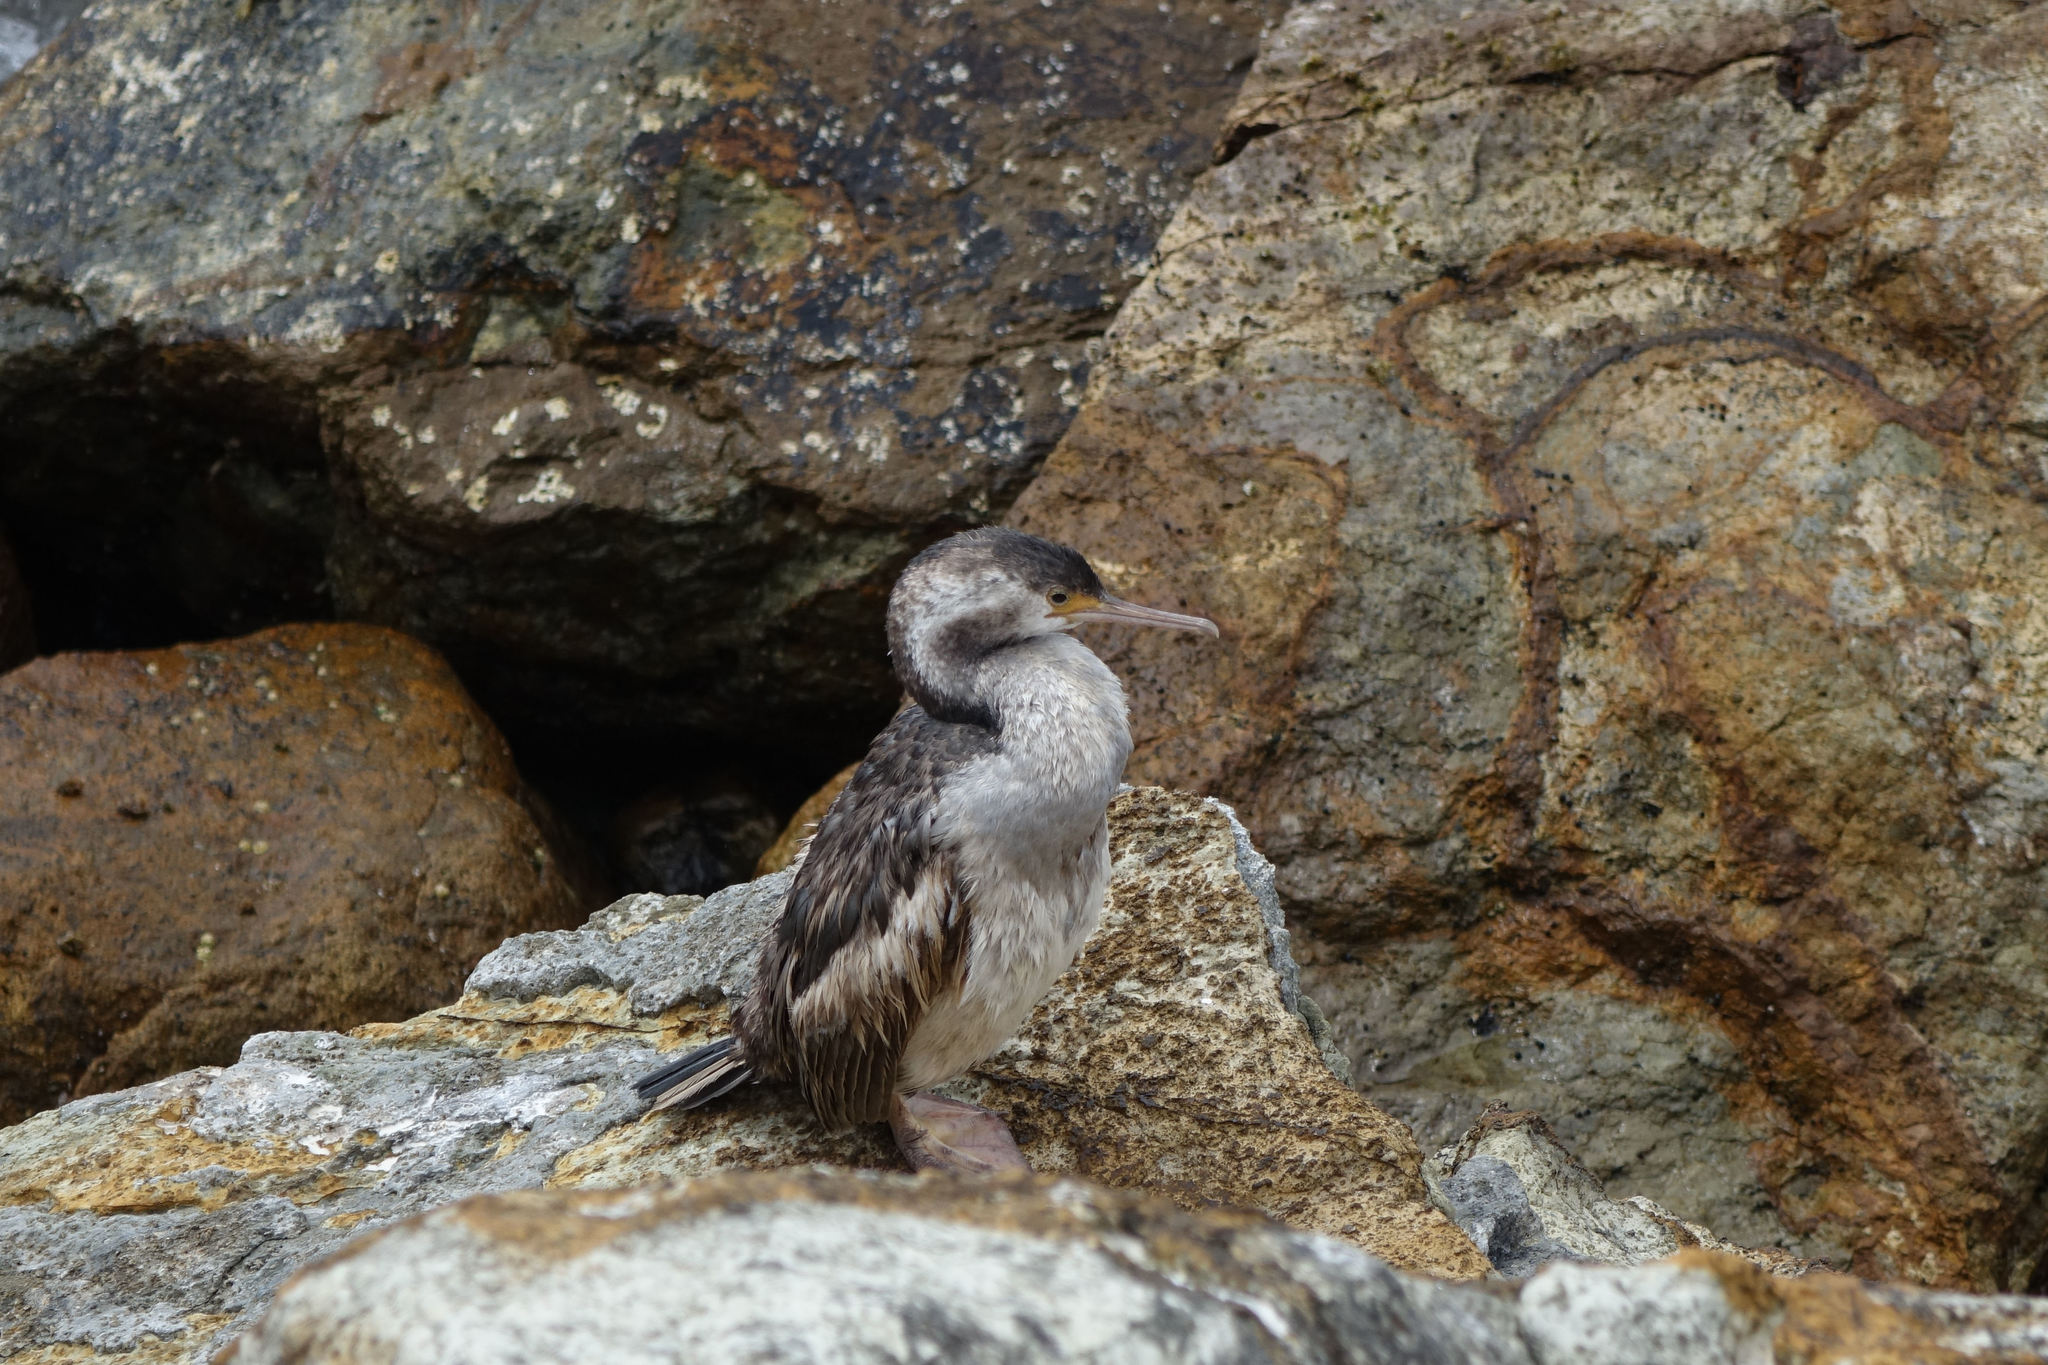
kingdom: Animalia
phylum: Chordata
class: Aves
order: Suliformes
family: Phalacrocoracidae
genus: Phalacrocorax
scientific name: Phalacrocorax punctatus
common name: Spotted shag
